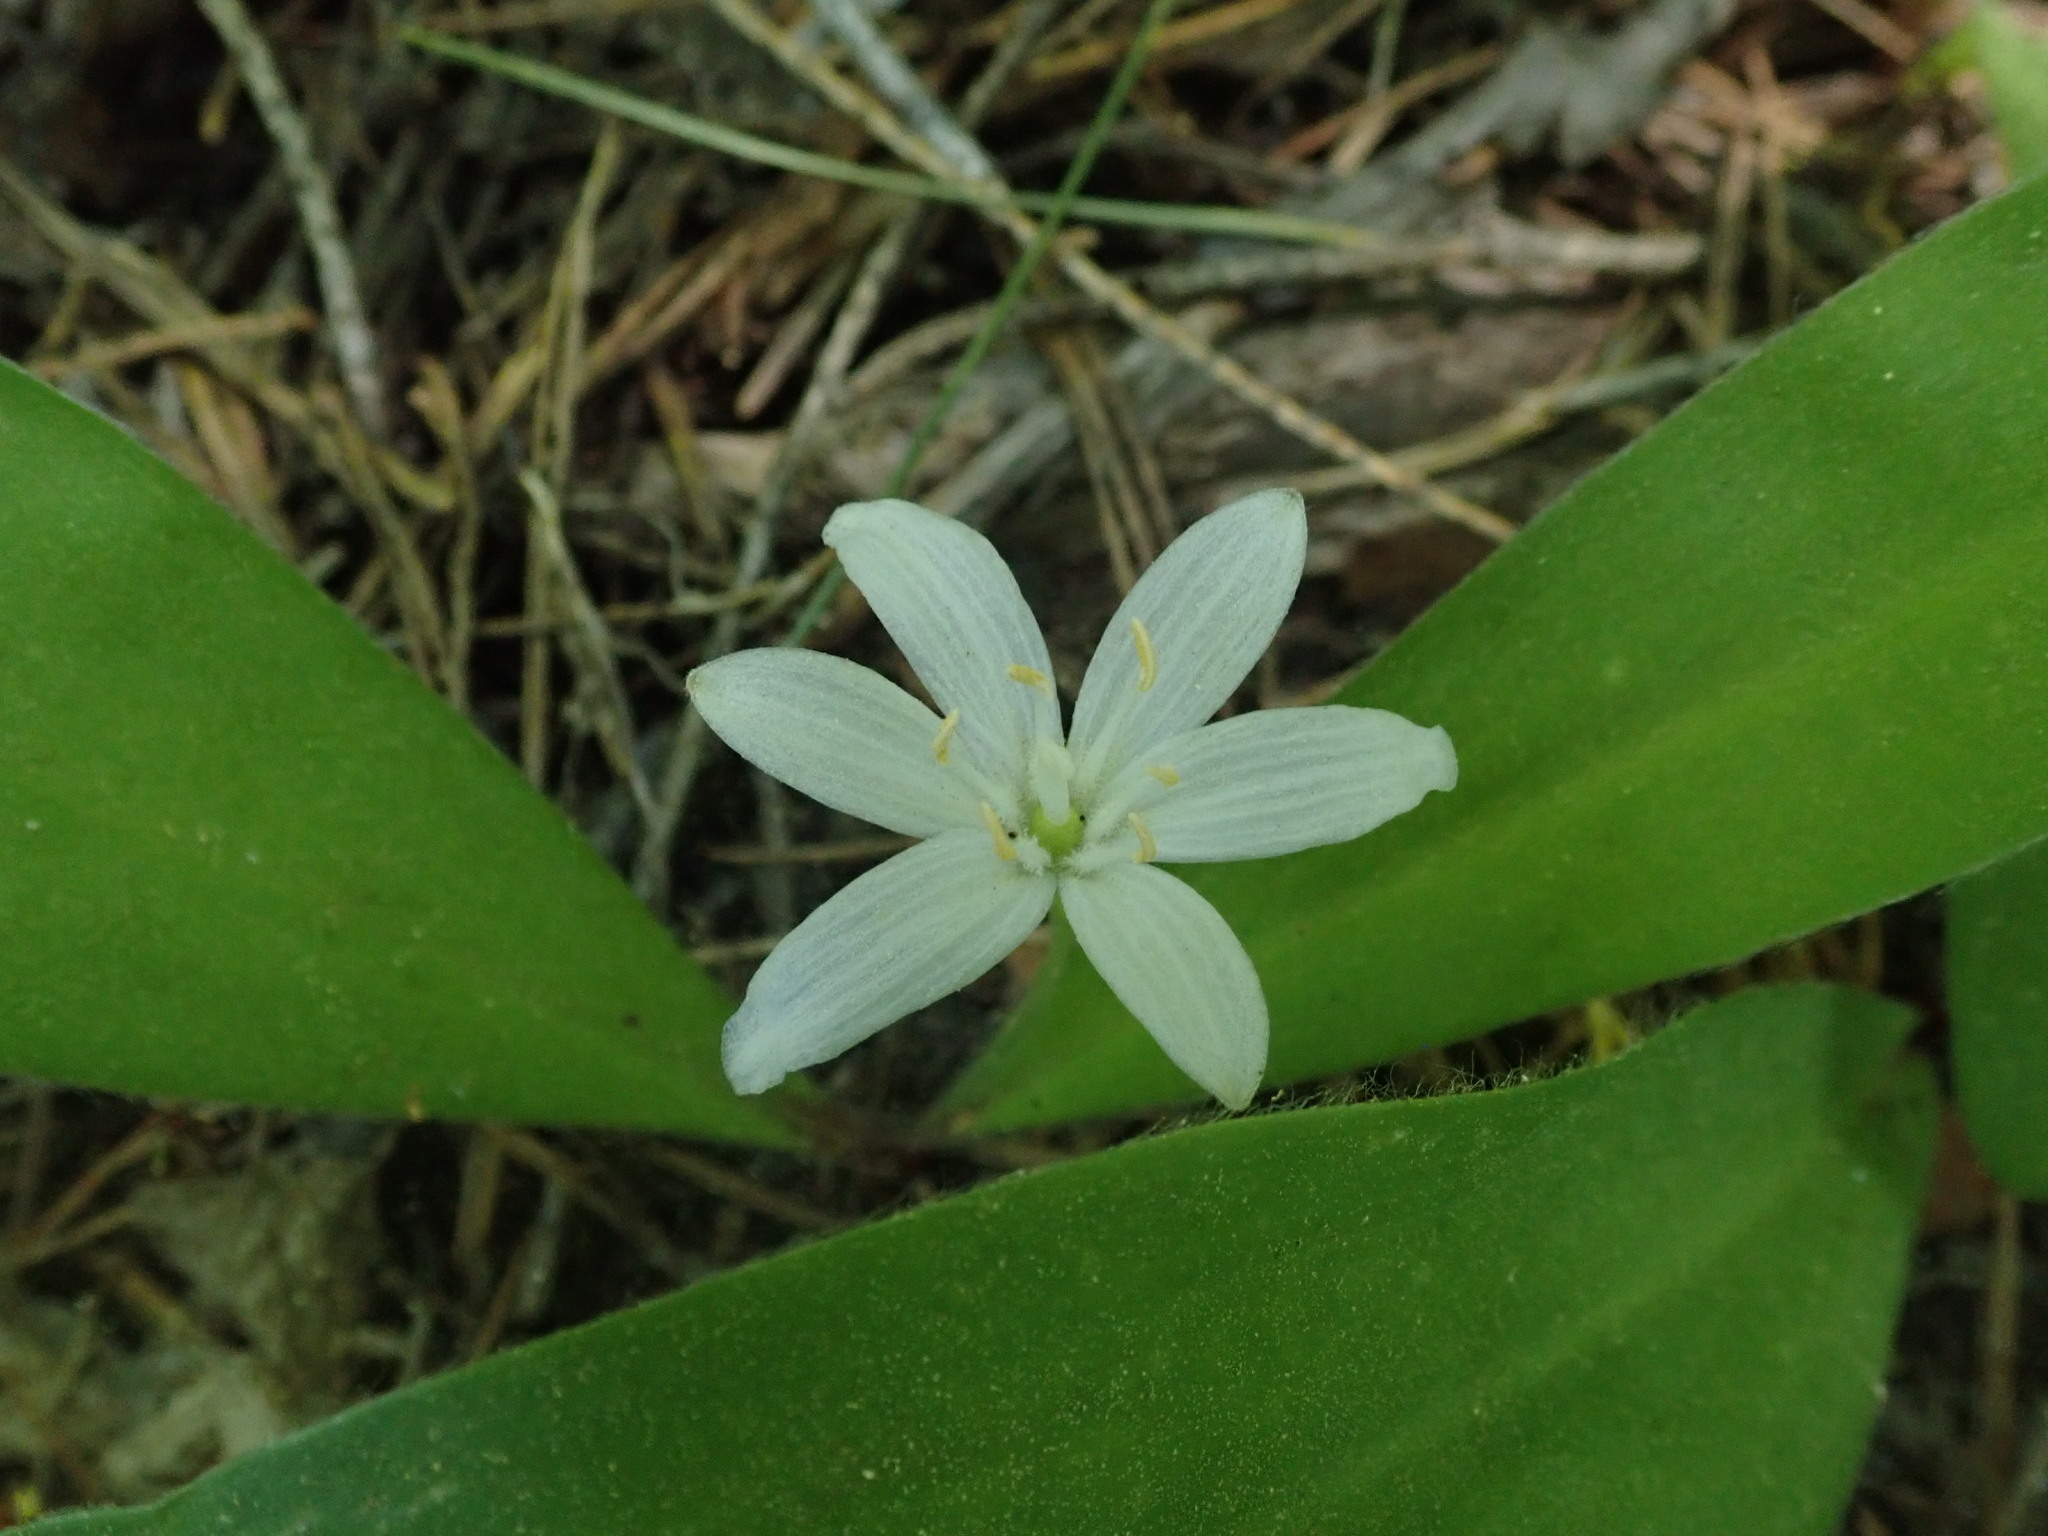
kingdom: Plantae
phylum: Tracheophyta
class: Liliopsida
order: Liliales
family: Liliaceae
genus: Clintonia
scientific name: Clintonia uniflora
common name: Queen's cup
